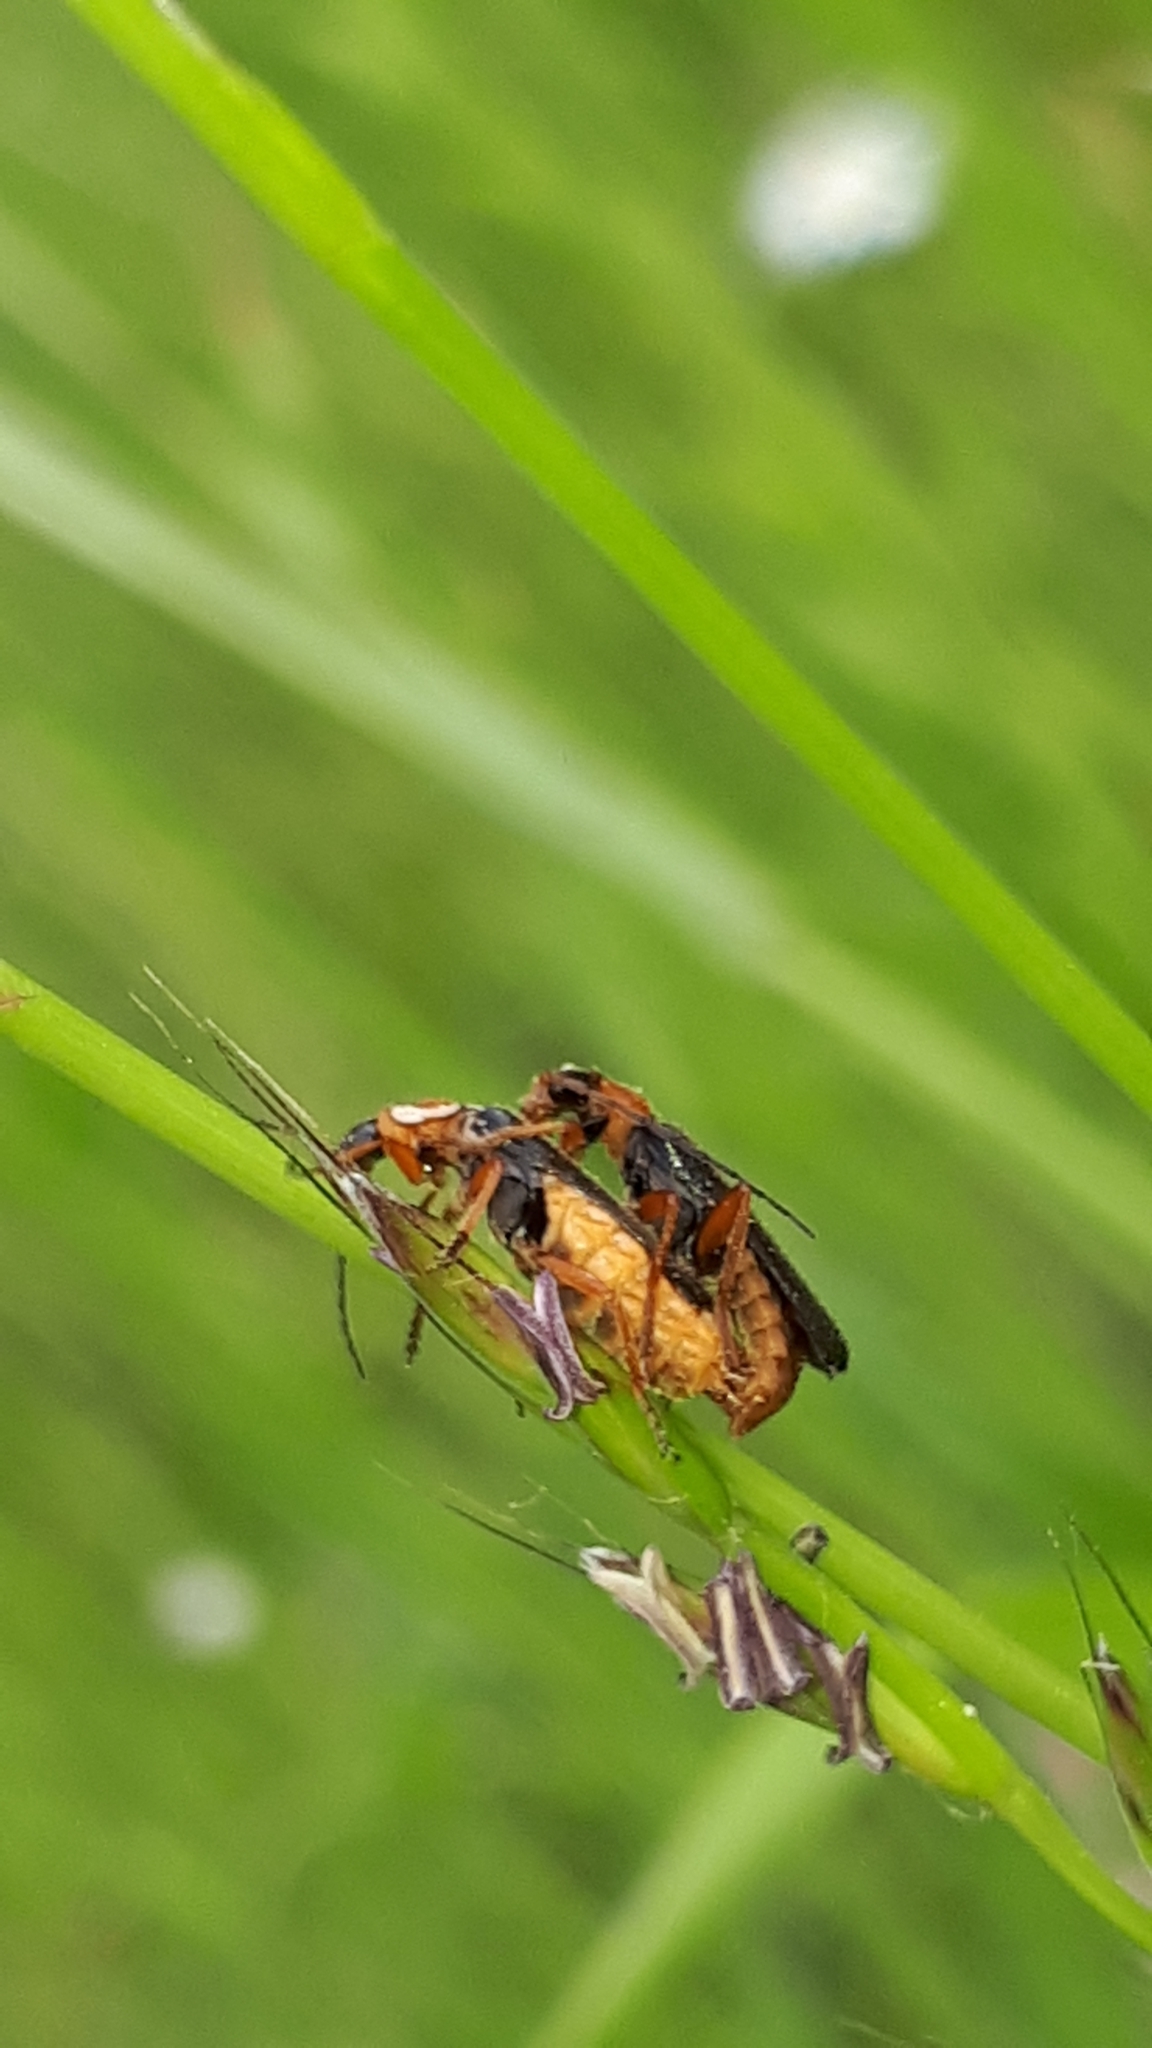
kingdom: Animalia
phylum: Arthropoda
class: Insecta
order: Coleoptera
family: Cantharidae
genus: Cantharis
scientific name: Cantharis flavilabris
